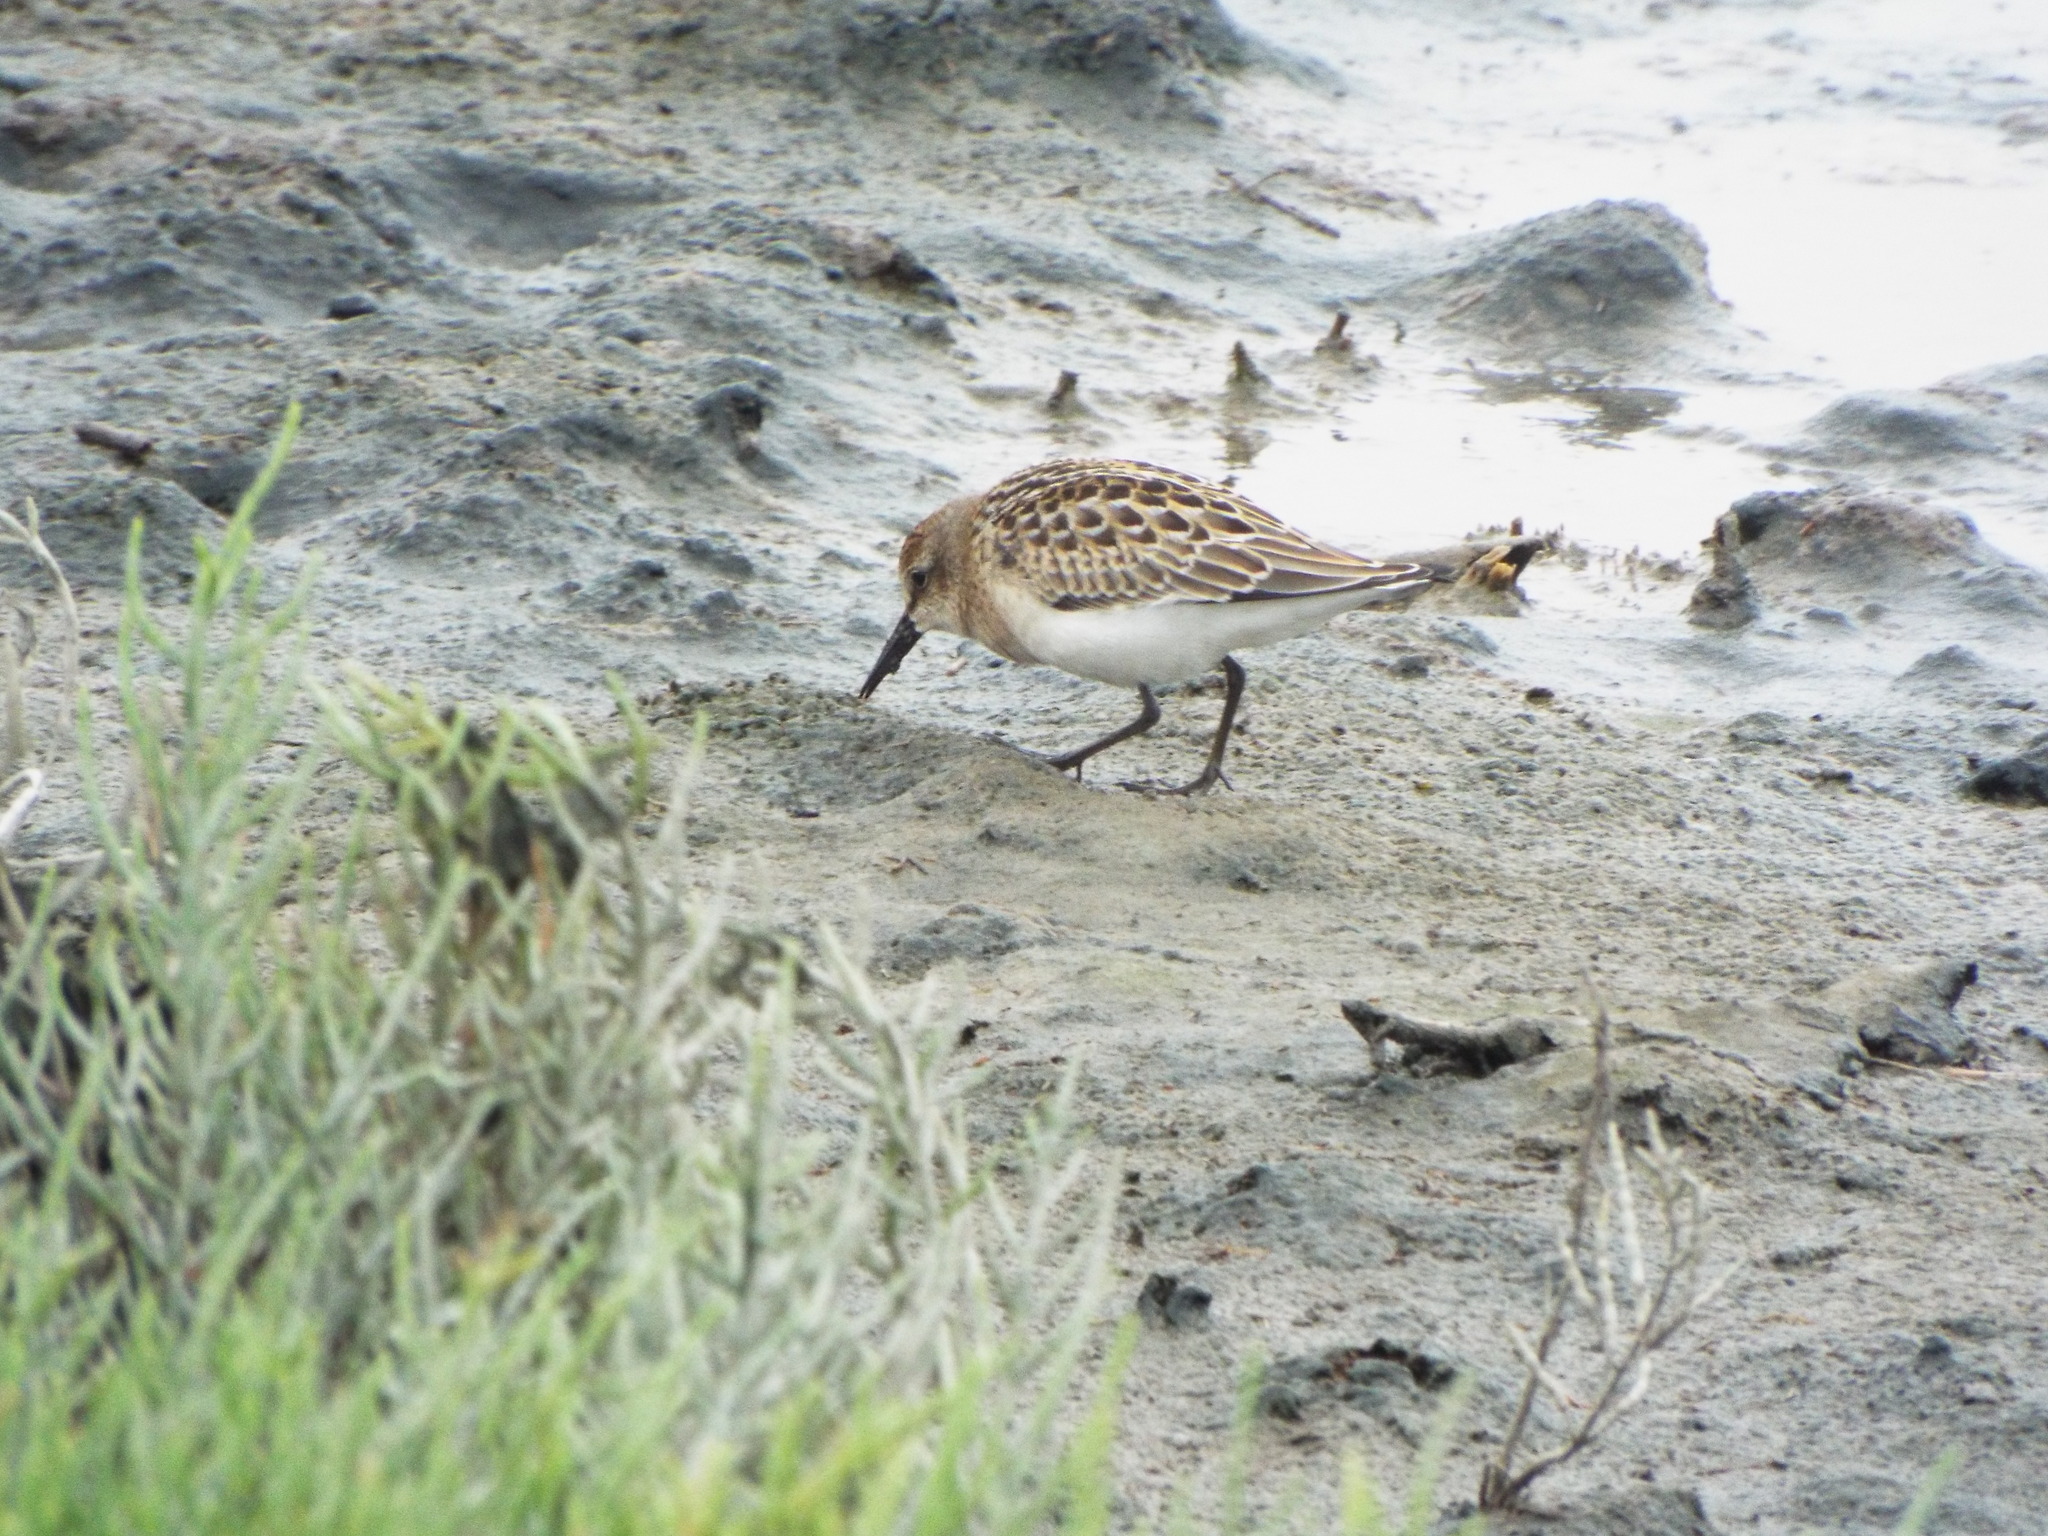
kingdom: Animalia
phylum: Chordata
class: Aves
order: Charadriiformes
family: Scolopacidae
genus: Calidris
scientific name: Calidris pusilla
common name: Semipalmated sandpiper
